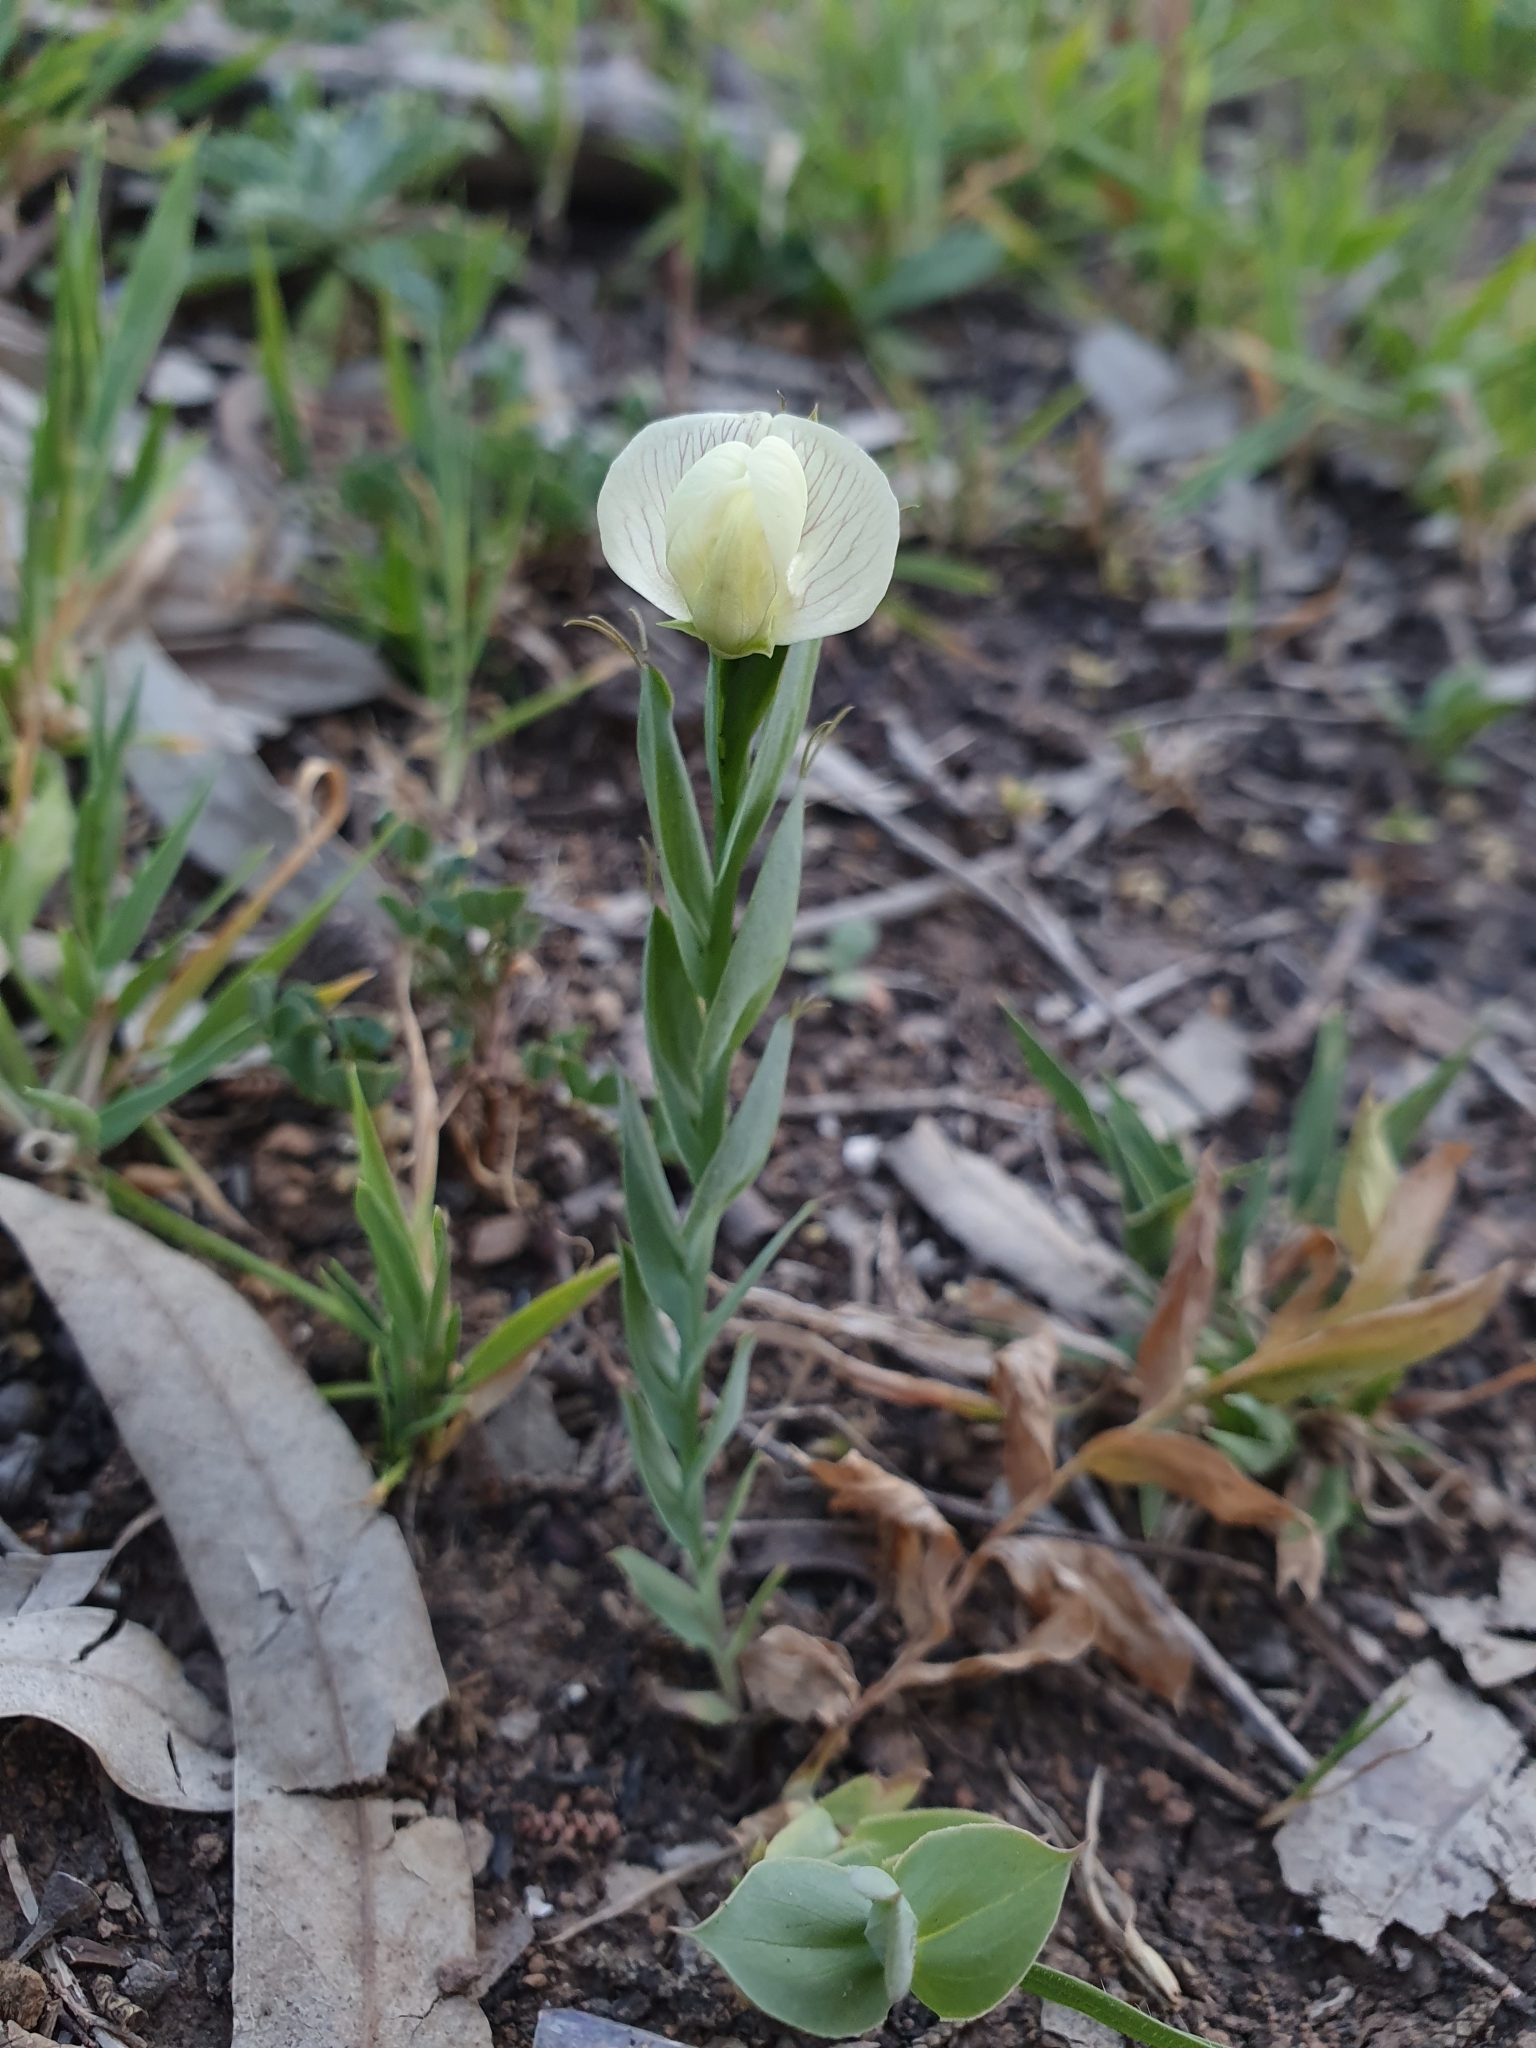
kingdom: Plantae
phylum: Tracheophyta
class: Magnoliopsida
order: Fabales
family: Fabaceae
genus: Lathyrus
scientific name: Lathyrus ochrus
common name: Winged vetchling
